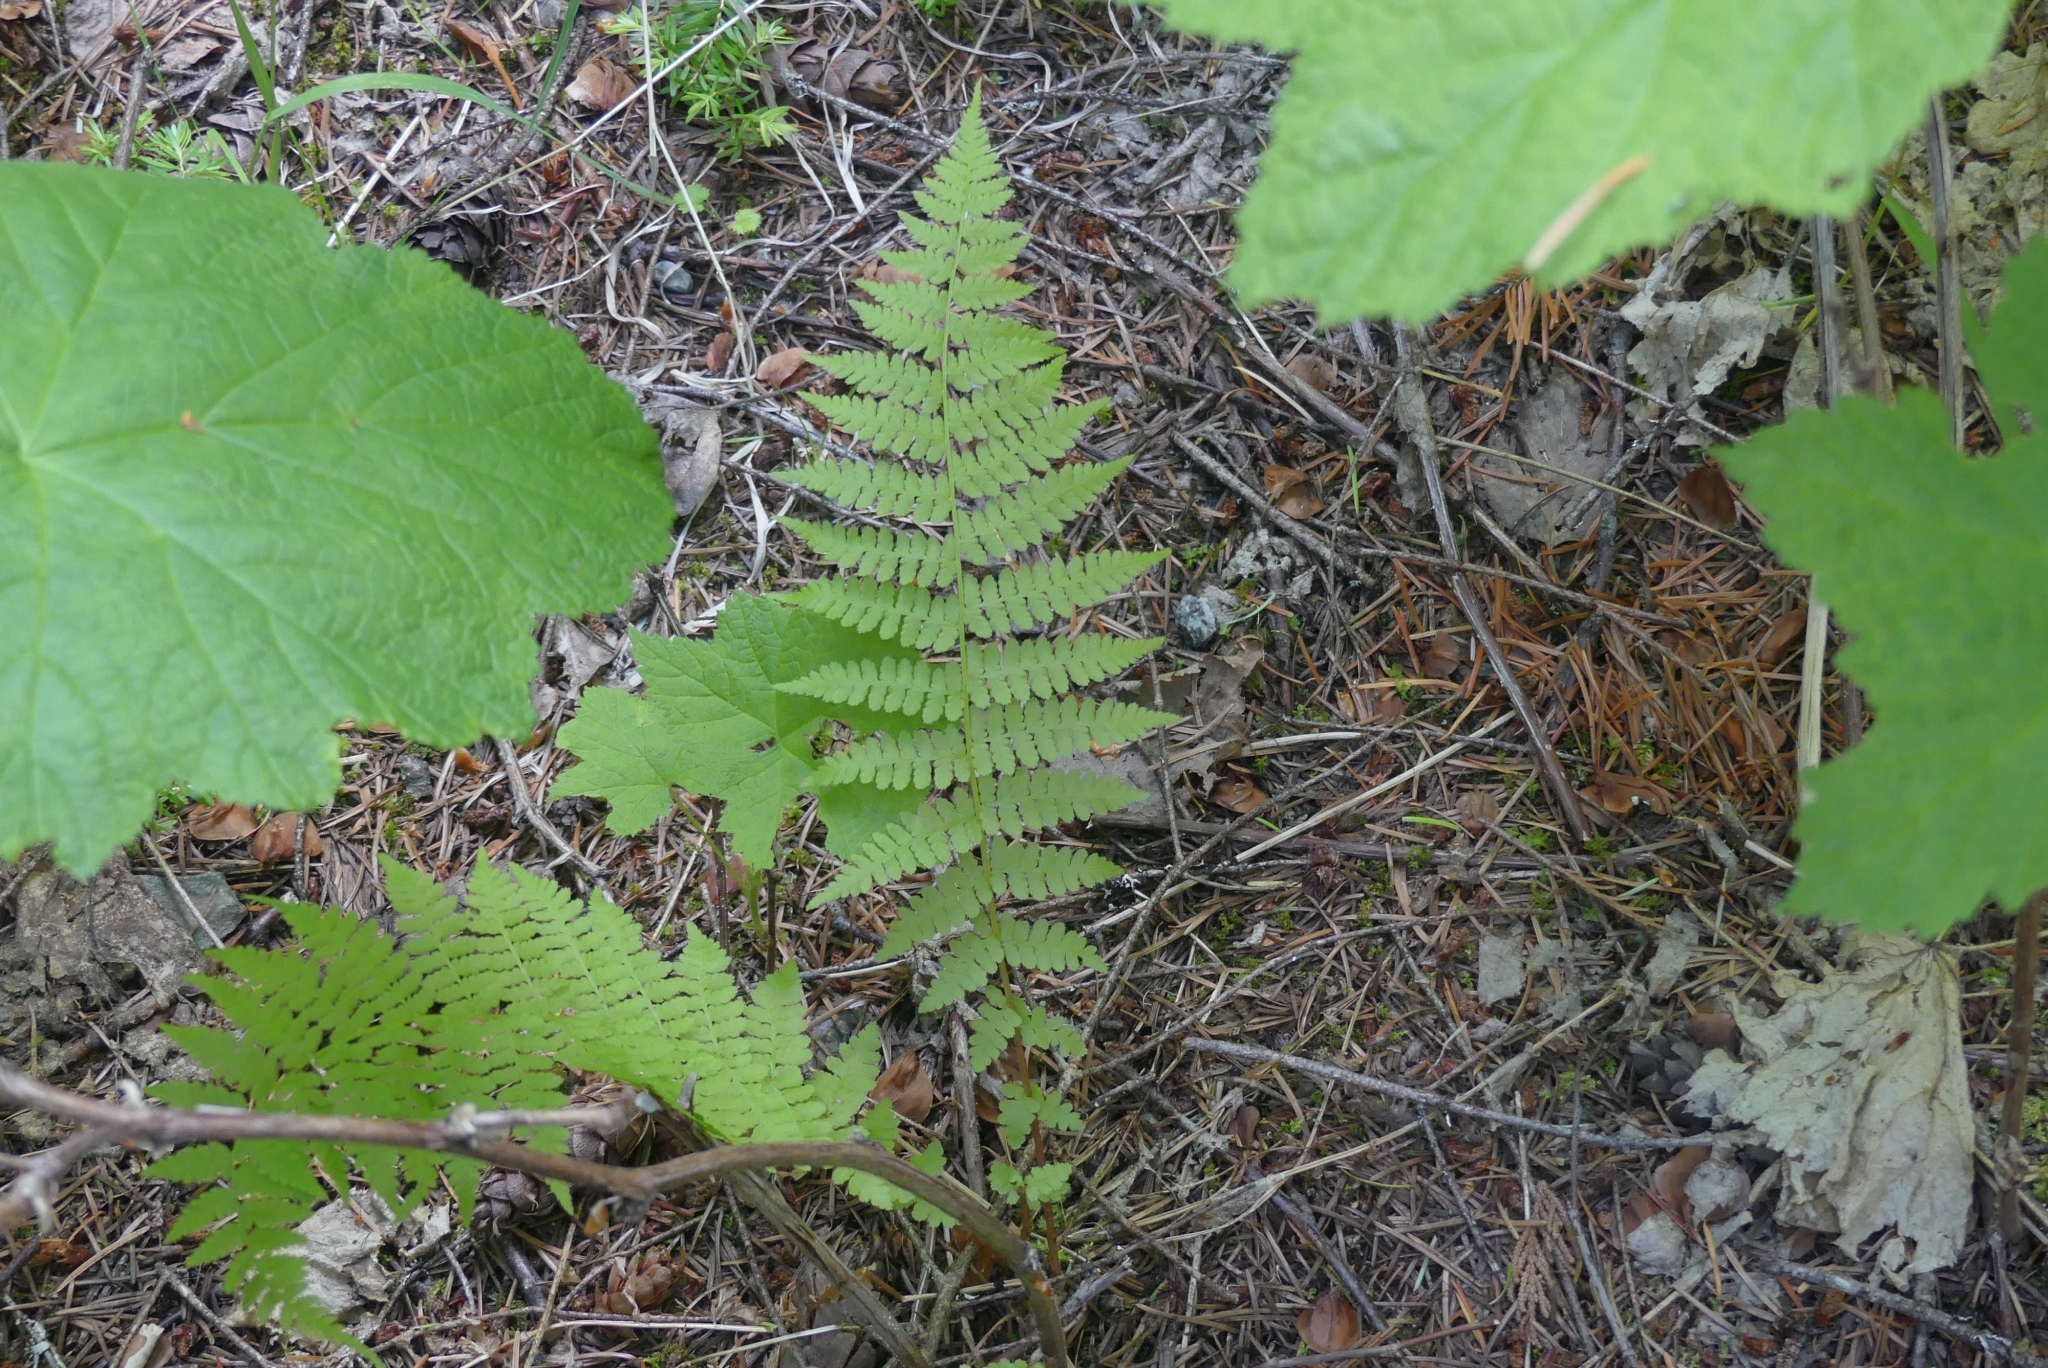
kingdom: Plantae
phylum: Tracheophyta
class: Polypodiopsida
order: Polypodiales
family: Athyriaceae
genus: Athyrium
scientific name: Athyrium cyclosorum
